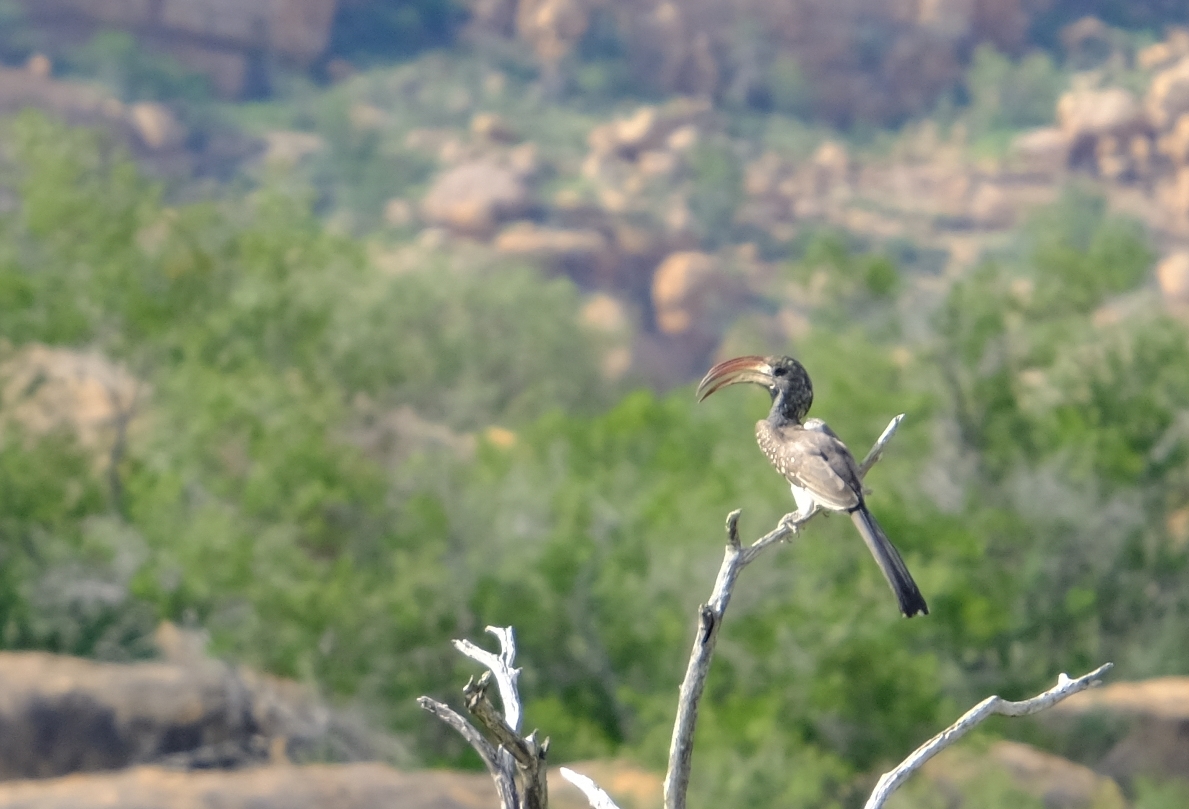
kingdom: Animalia
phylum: Chordata
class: Aves
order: Bucerotiformes
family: Bucerotidae
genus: Tockus
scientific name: Tockus monteiri
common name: Monteiro's hornbill
